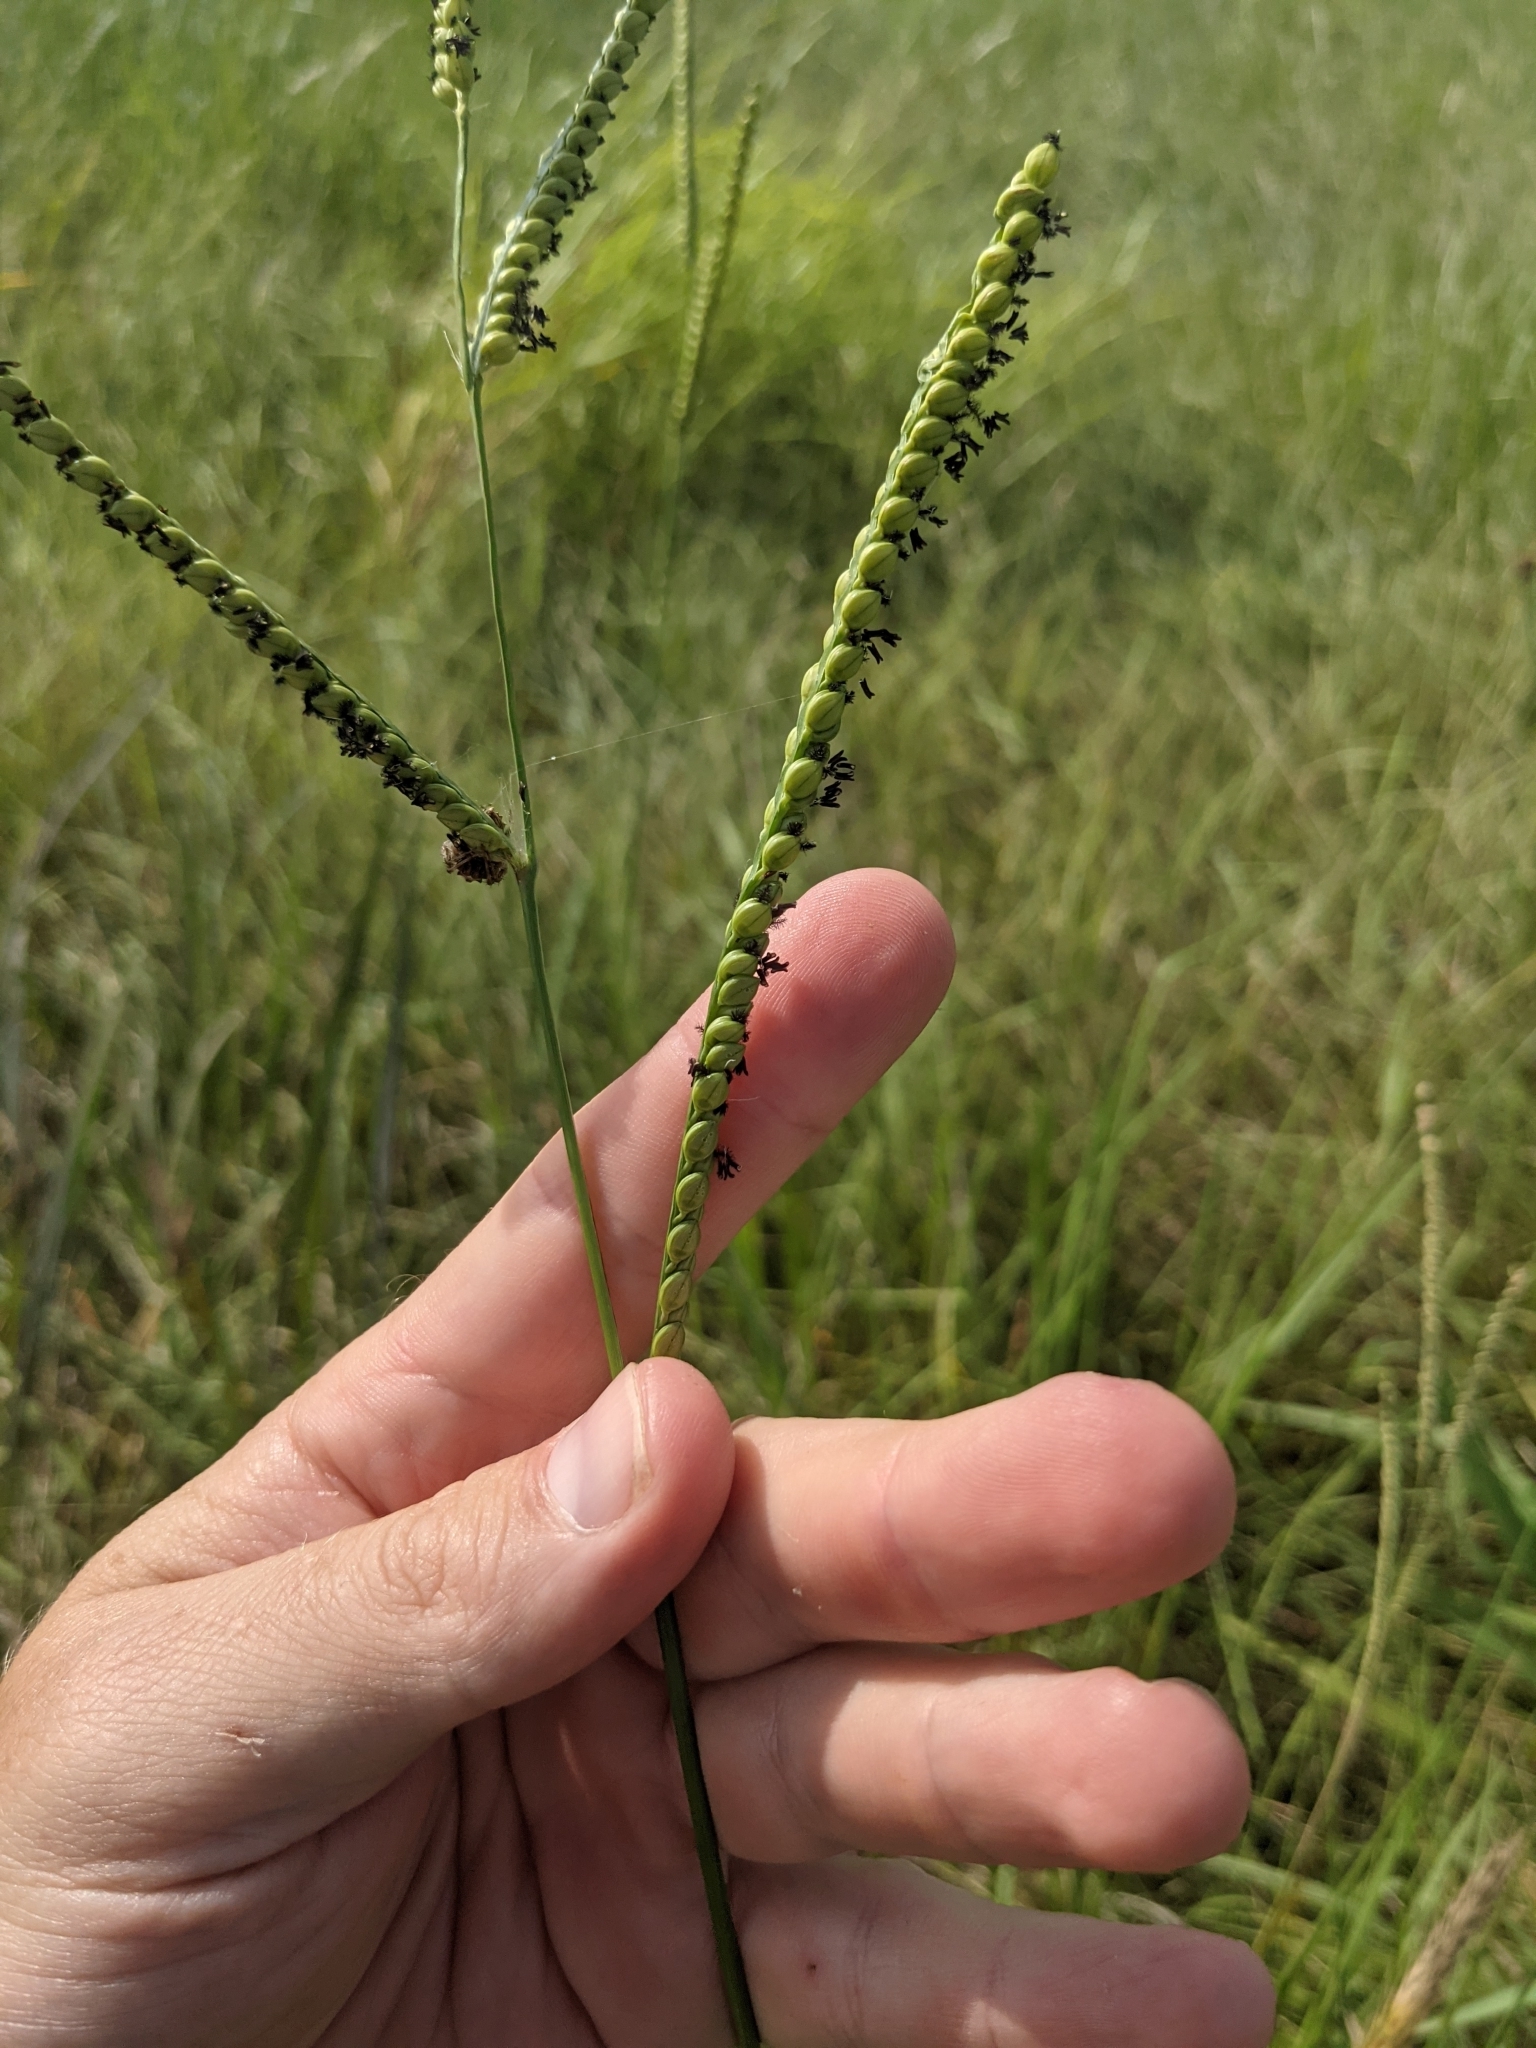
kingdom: Plantae
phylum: Tracheophyta
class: Liliopsida
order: Poales
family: Poaceae
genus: Paspalum
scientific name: Paspalum floridanum
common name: Florida paspalum
